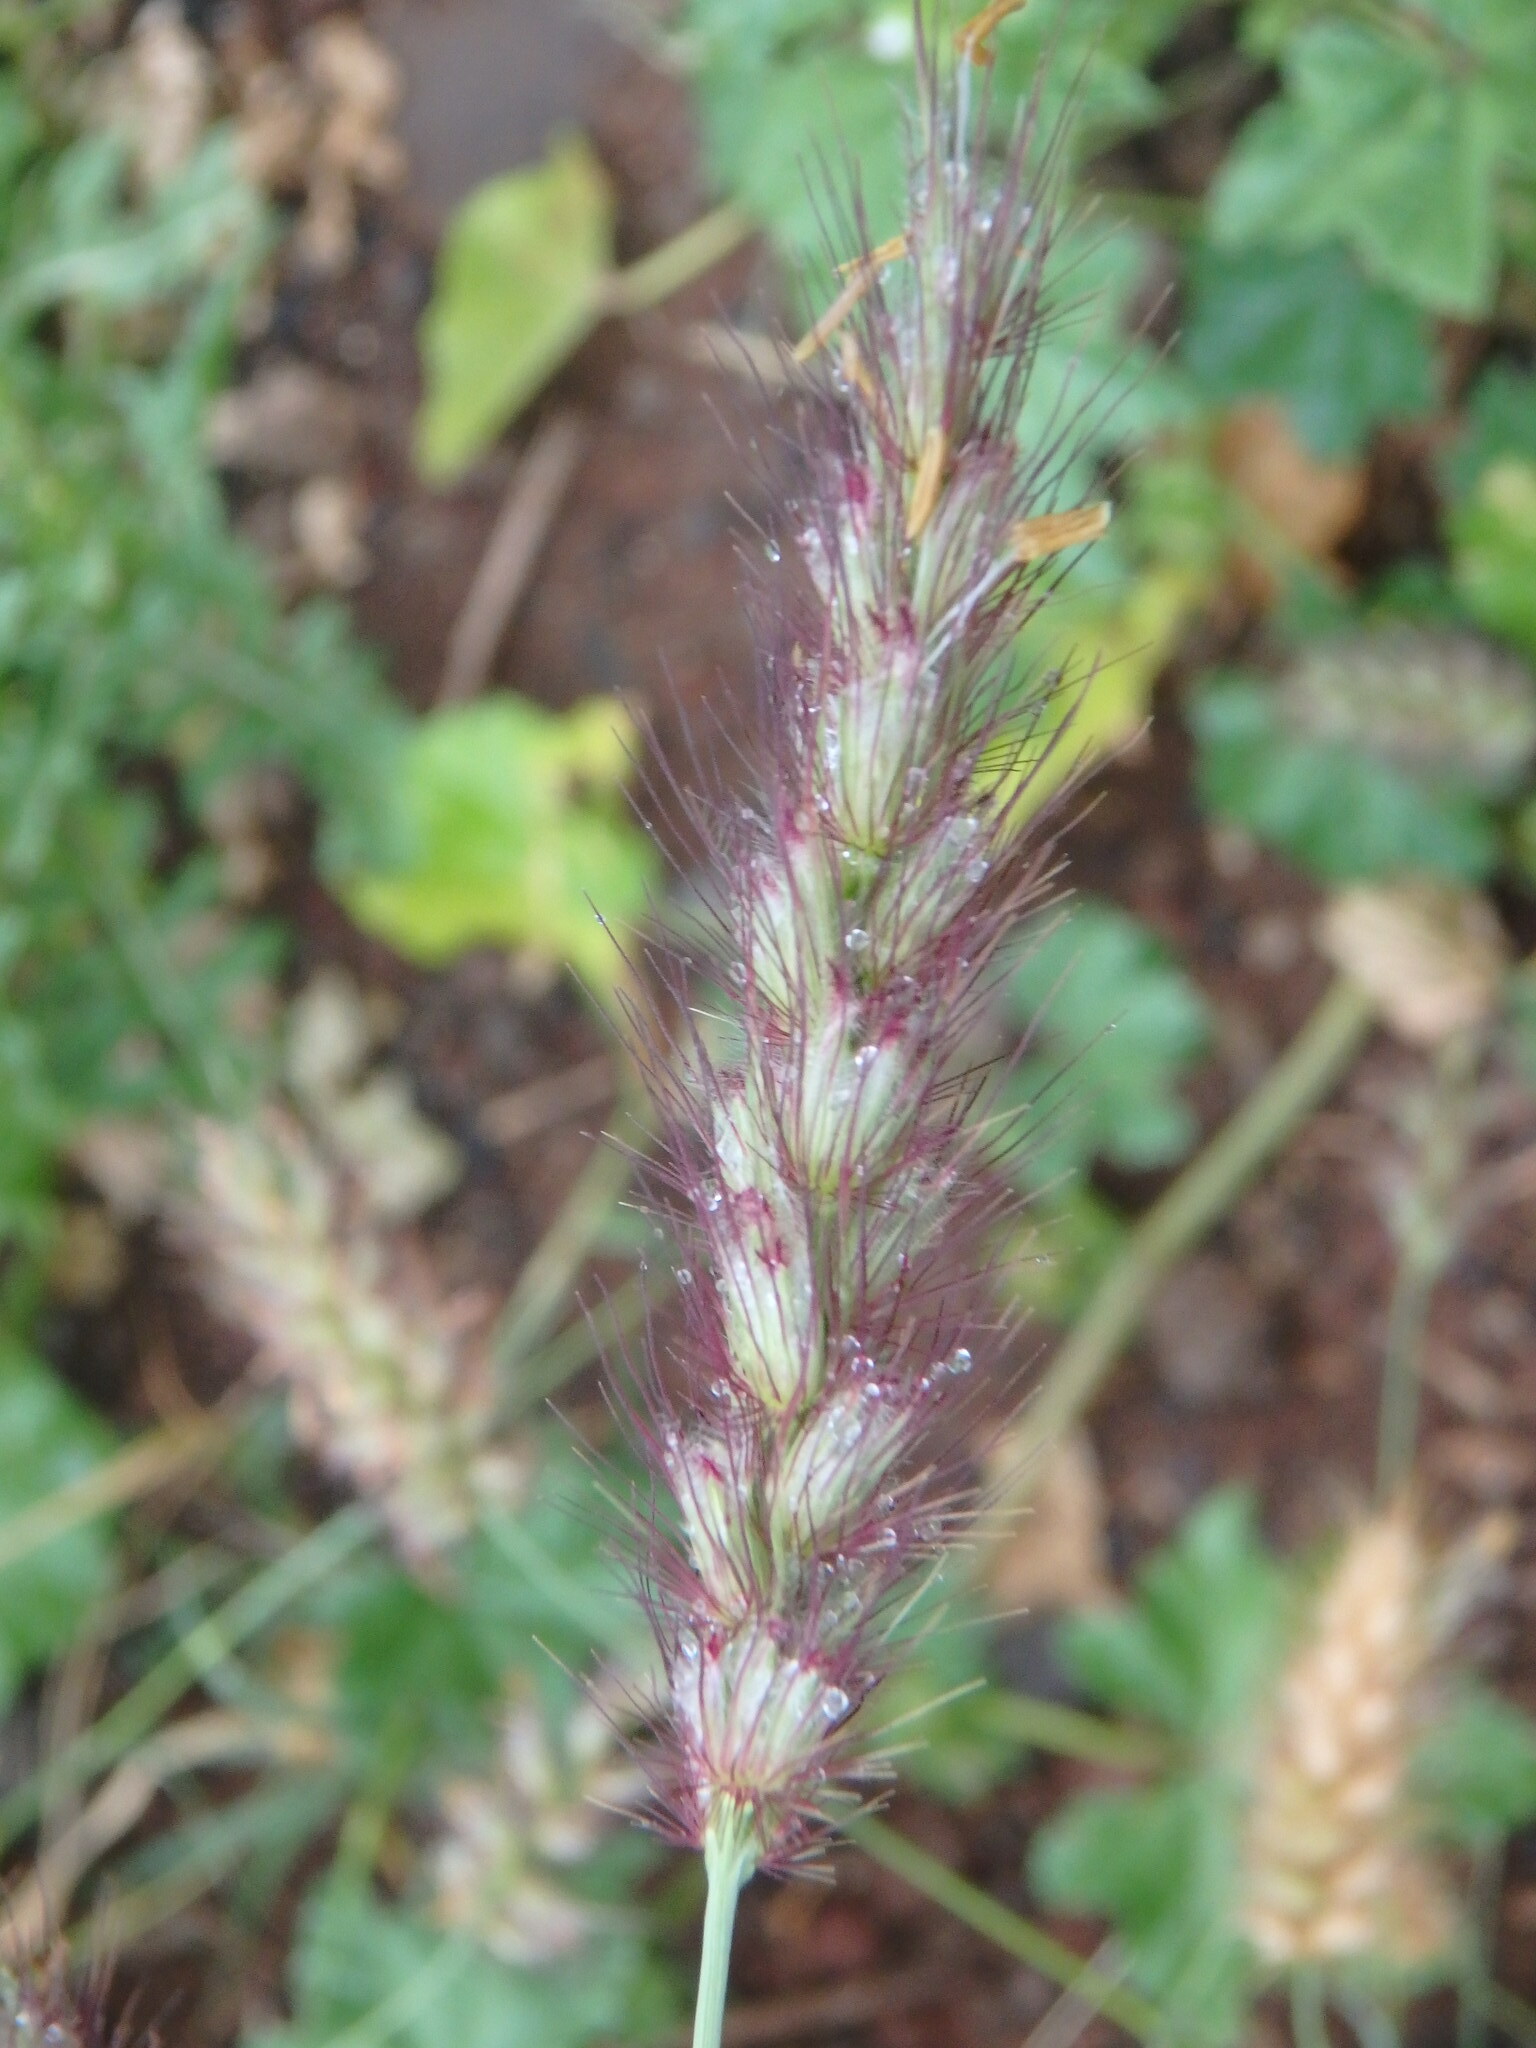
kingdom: Plantae
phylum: Tracheophyta
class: Liliopsida
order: Poales
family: Poaceae
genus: Cenchrus
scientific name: Cenchrus ciliaris
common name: Buffelgrass
